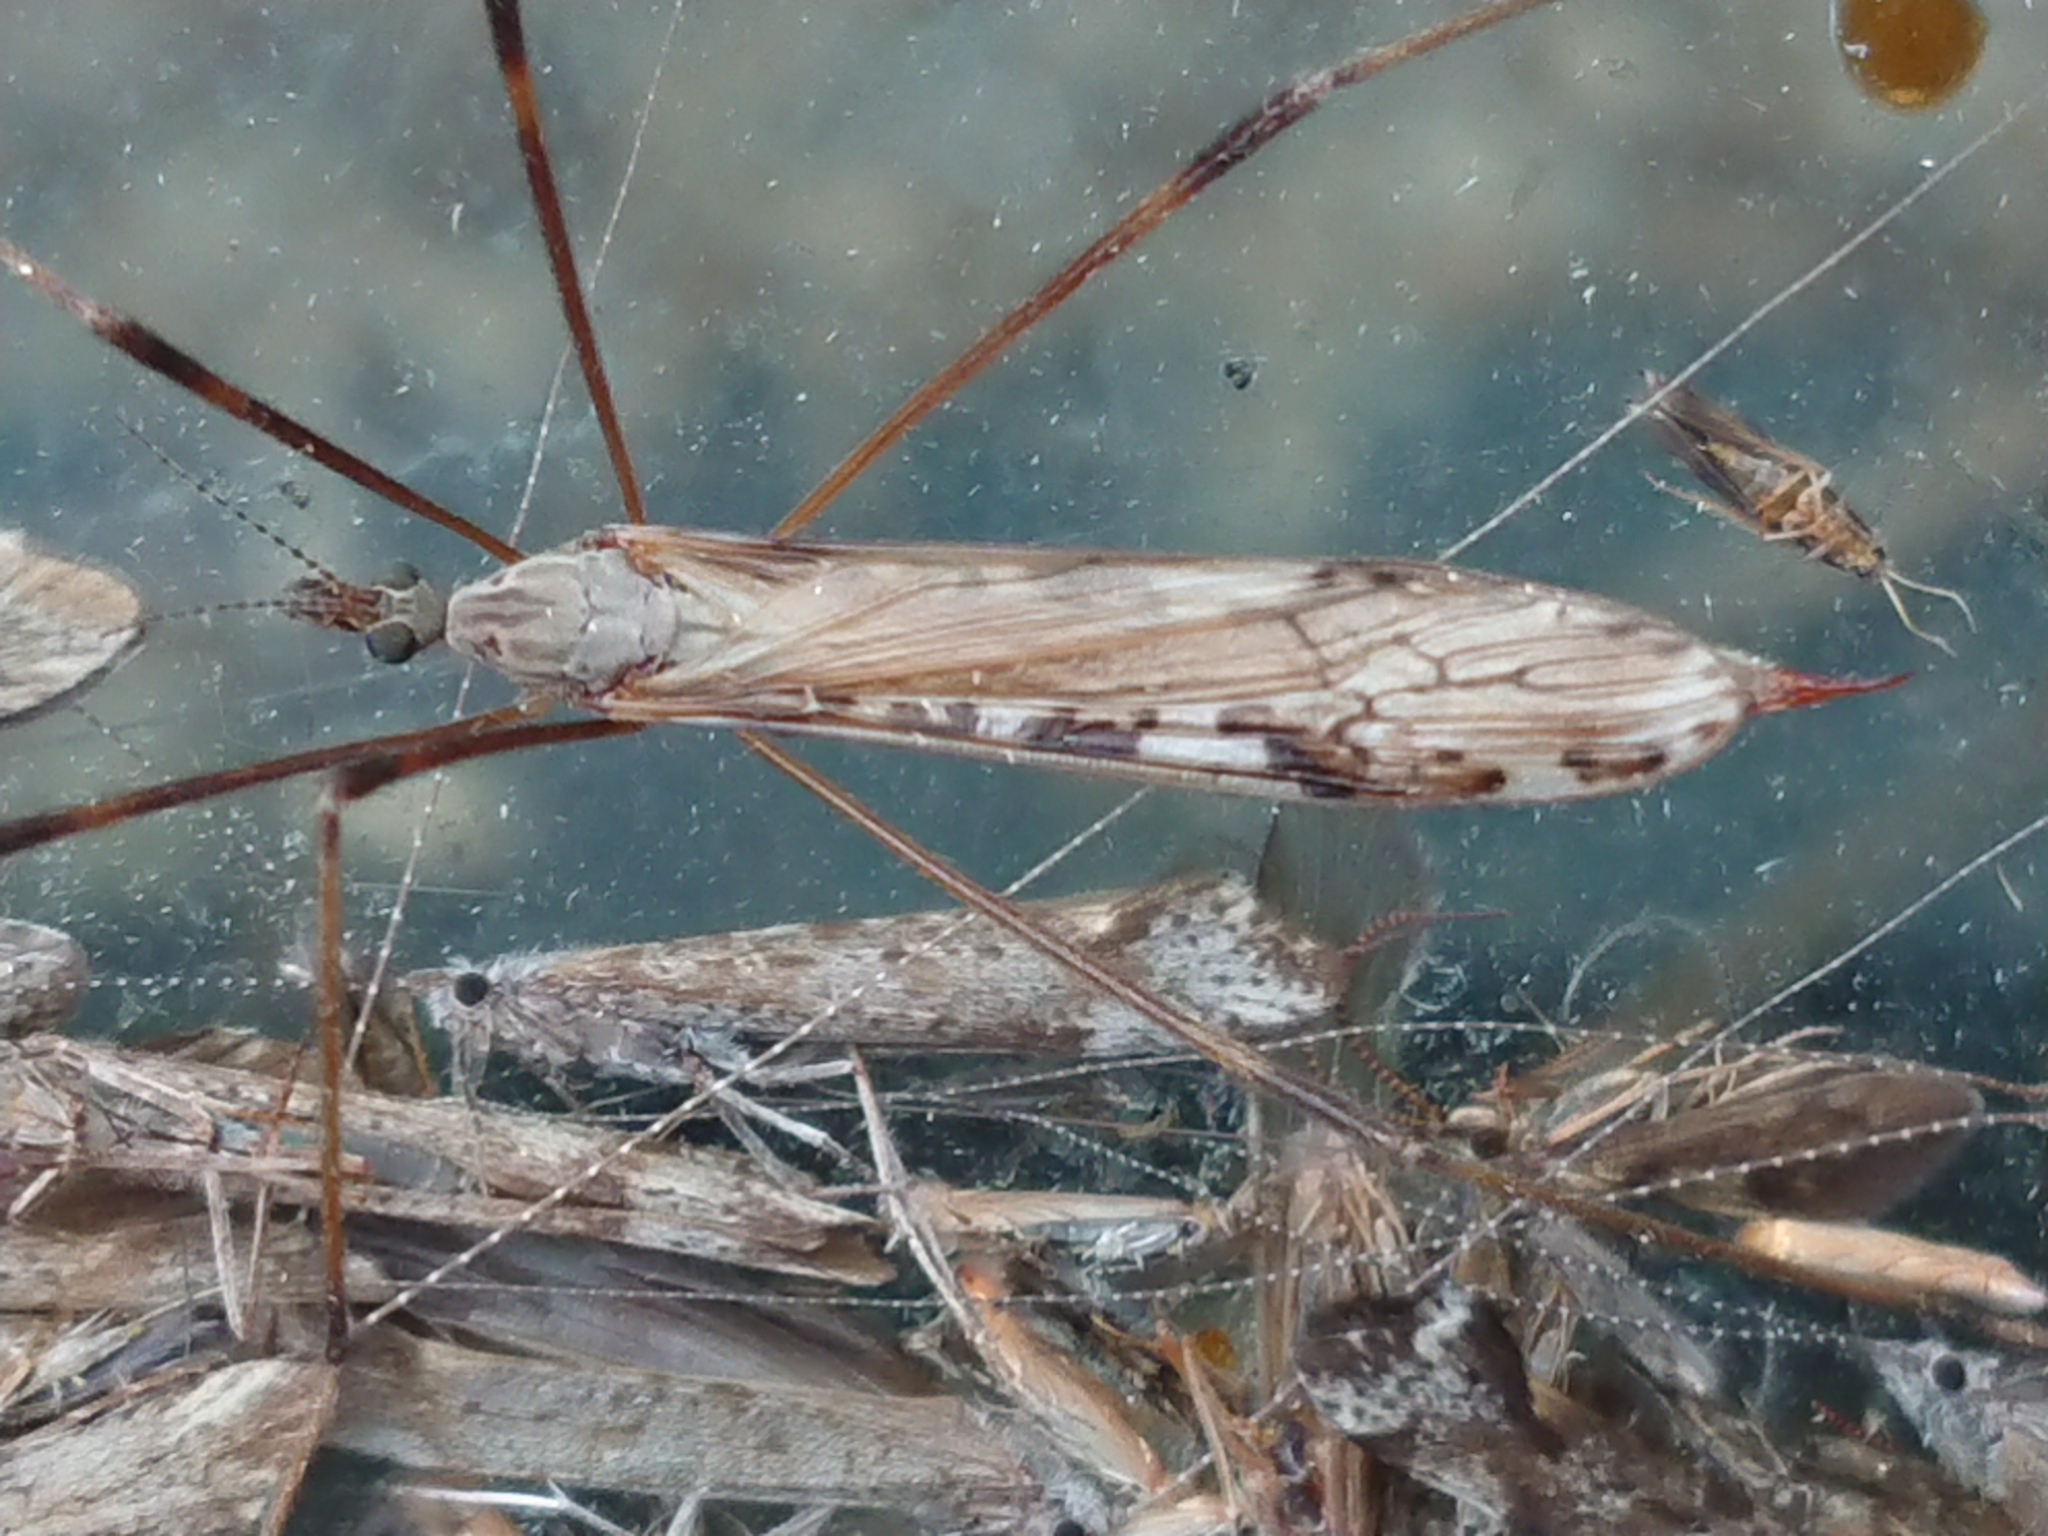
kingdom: Animalia
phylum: Arthropoda
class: Insecta
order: Diptera
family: Limoniidae
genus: Paralimnophila
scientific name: Paralimnophila skusei
